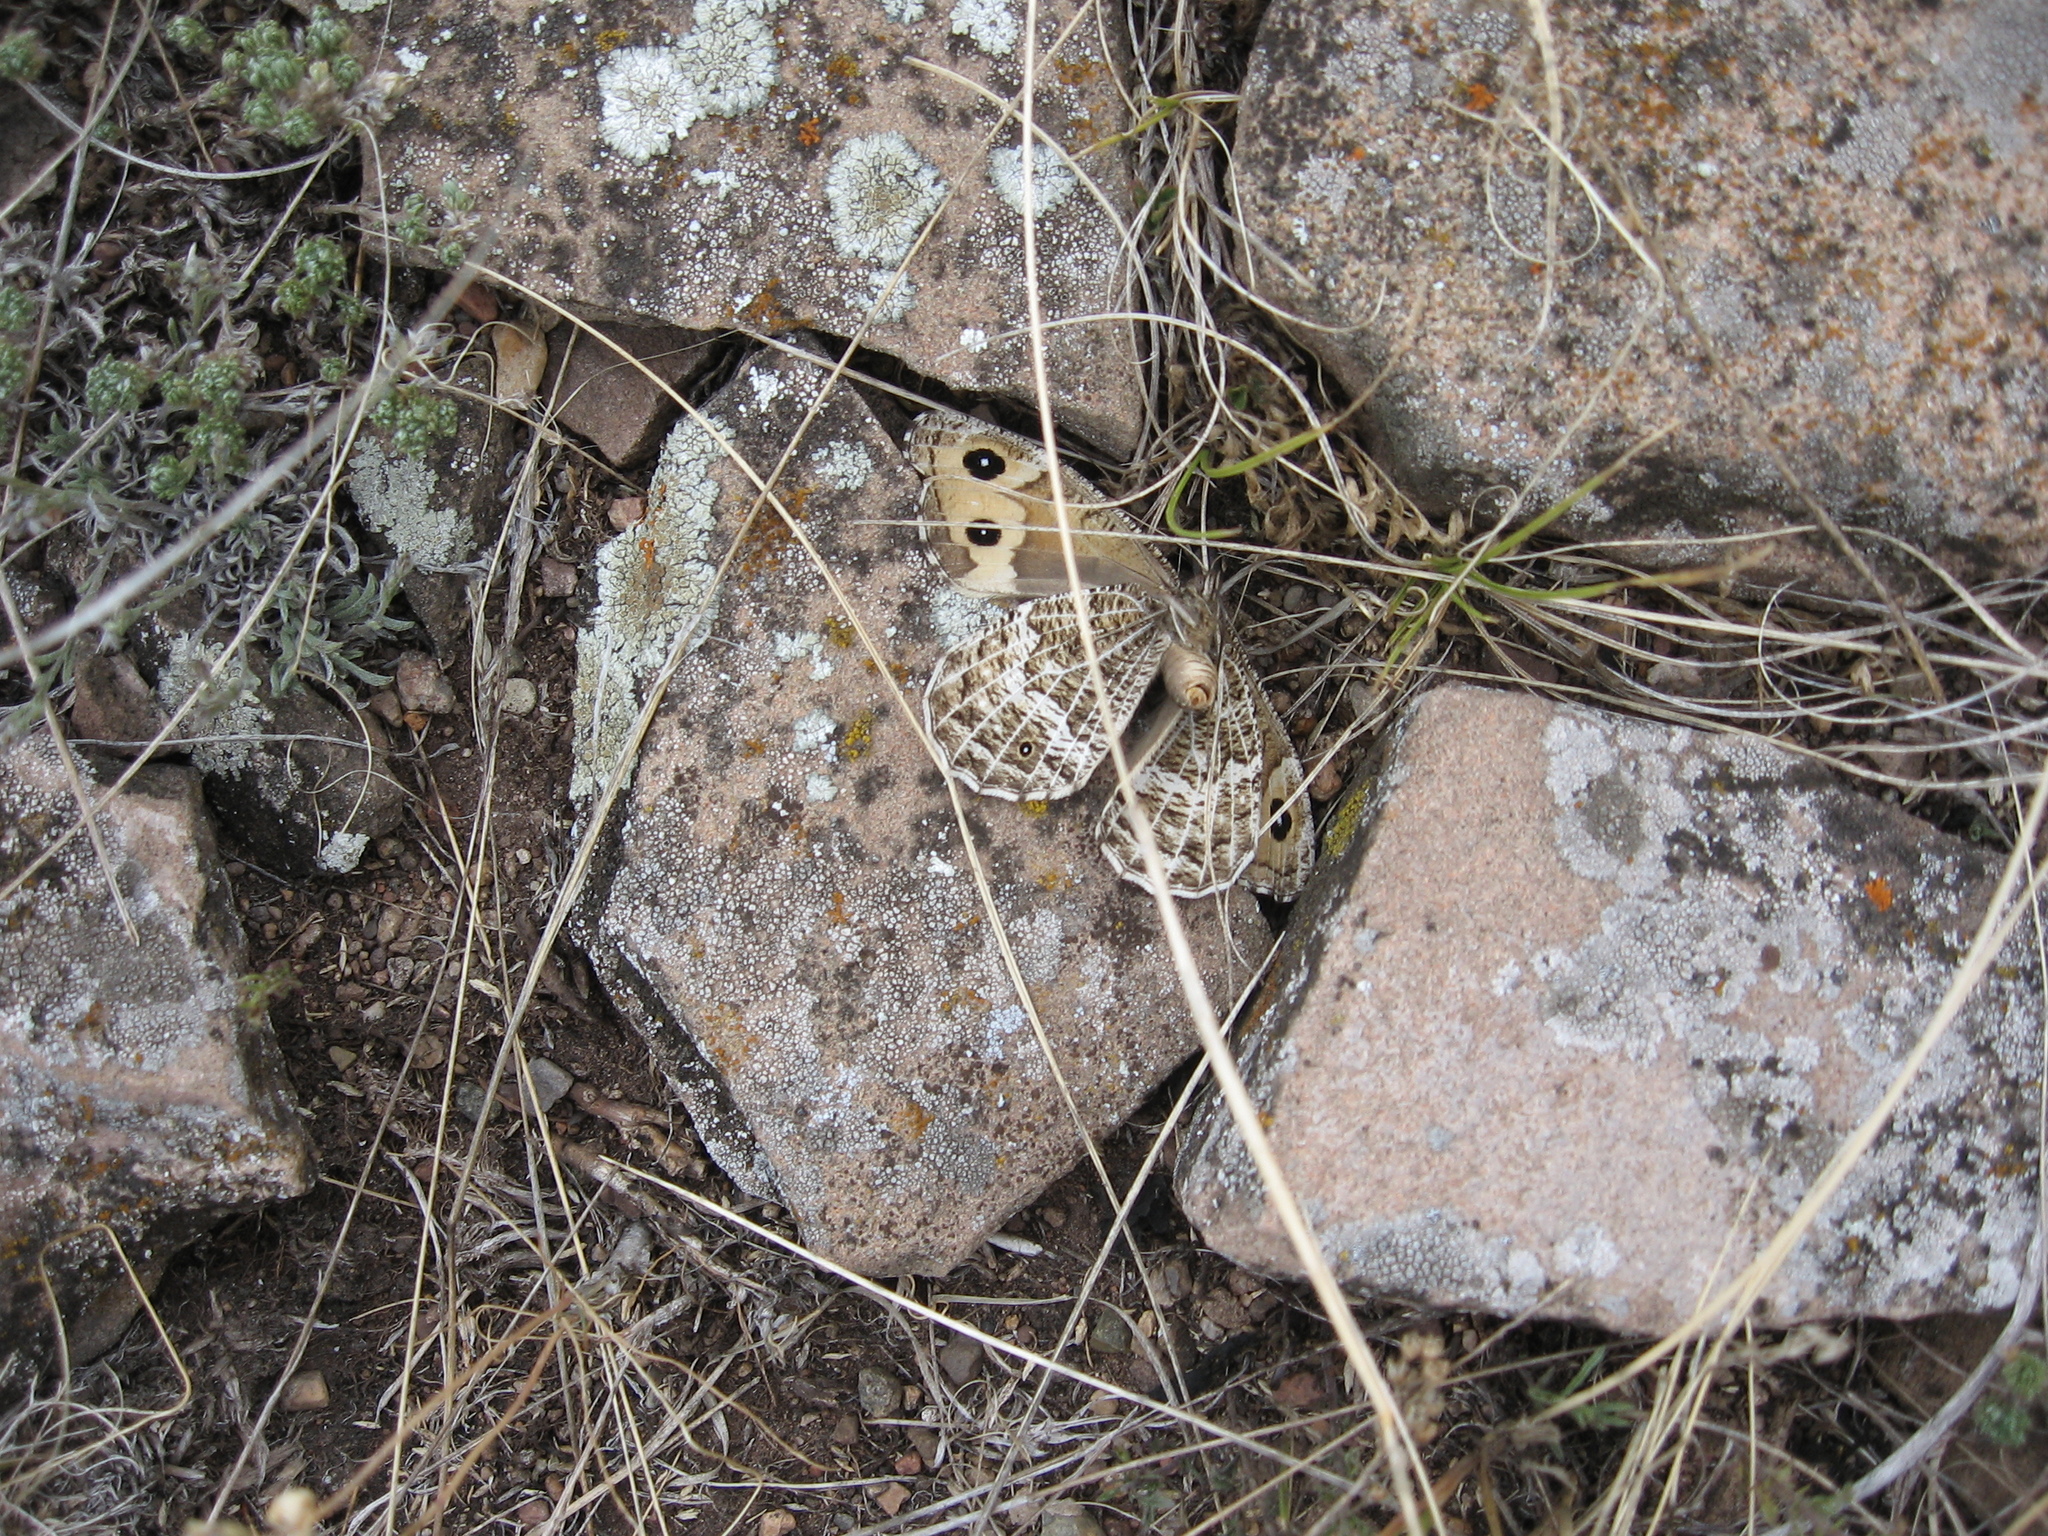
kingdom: Animalia
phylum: Arthropoda
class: Insecta
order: Lepidoptera
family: Nymphalidae
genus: Hipparchia
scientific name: Hipparchia autonoe
